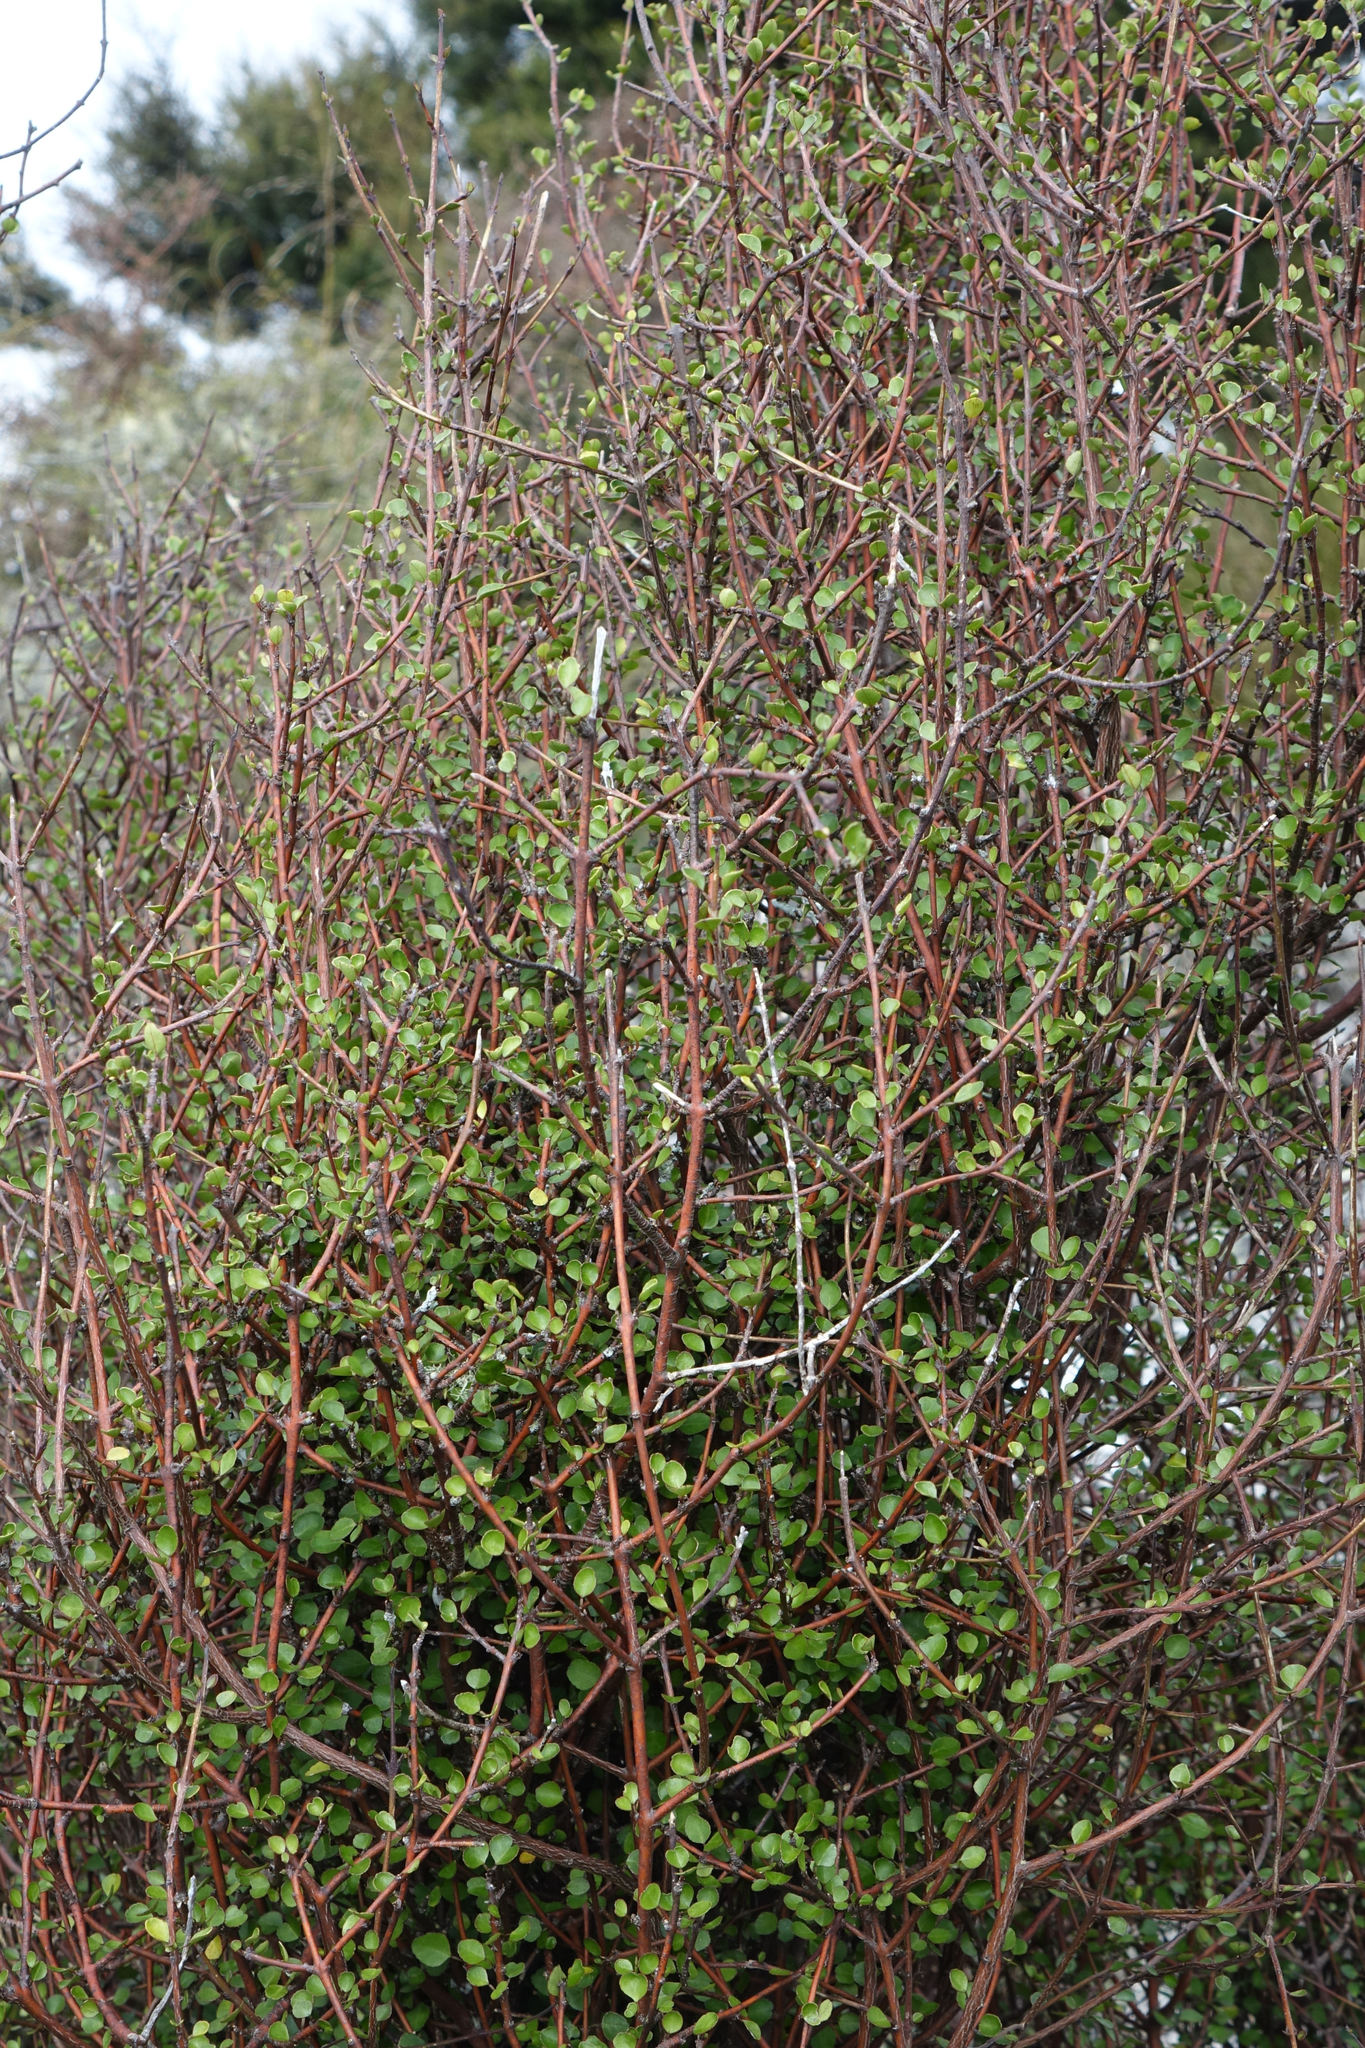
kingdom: Plantae
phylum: Tracheophyta
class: Magnoliopsida
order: Sapindales
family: Rutaceae
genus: Melicope
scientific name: Melicope simplex
